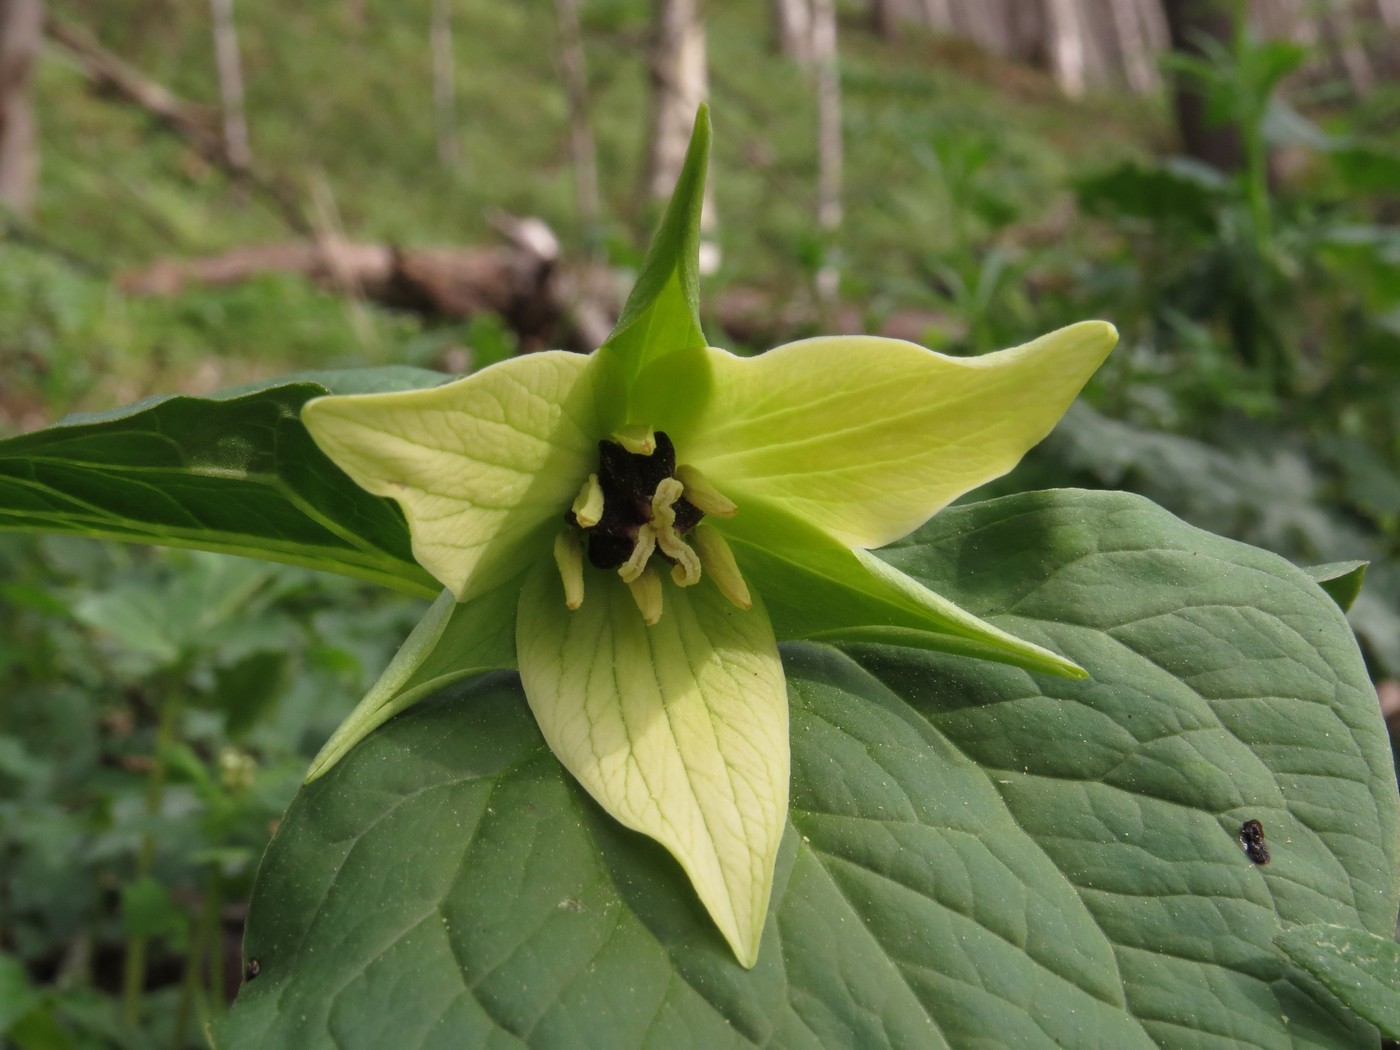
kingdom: Plantae
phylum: Tracheophyta
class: Liliopsida
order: Liliales
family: Melanthiaceae
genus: Trillium
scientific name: Trillium erectum
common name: Purple trillium
